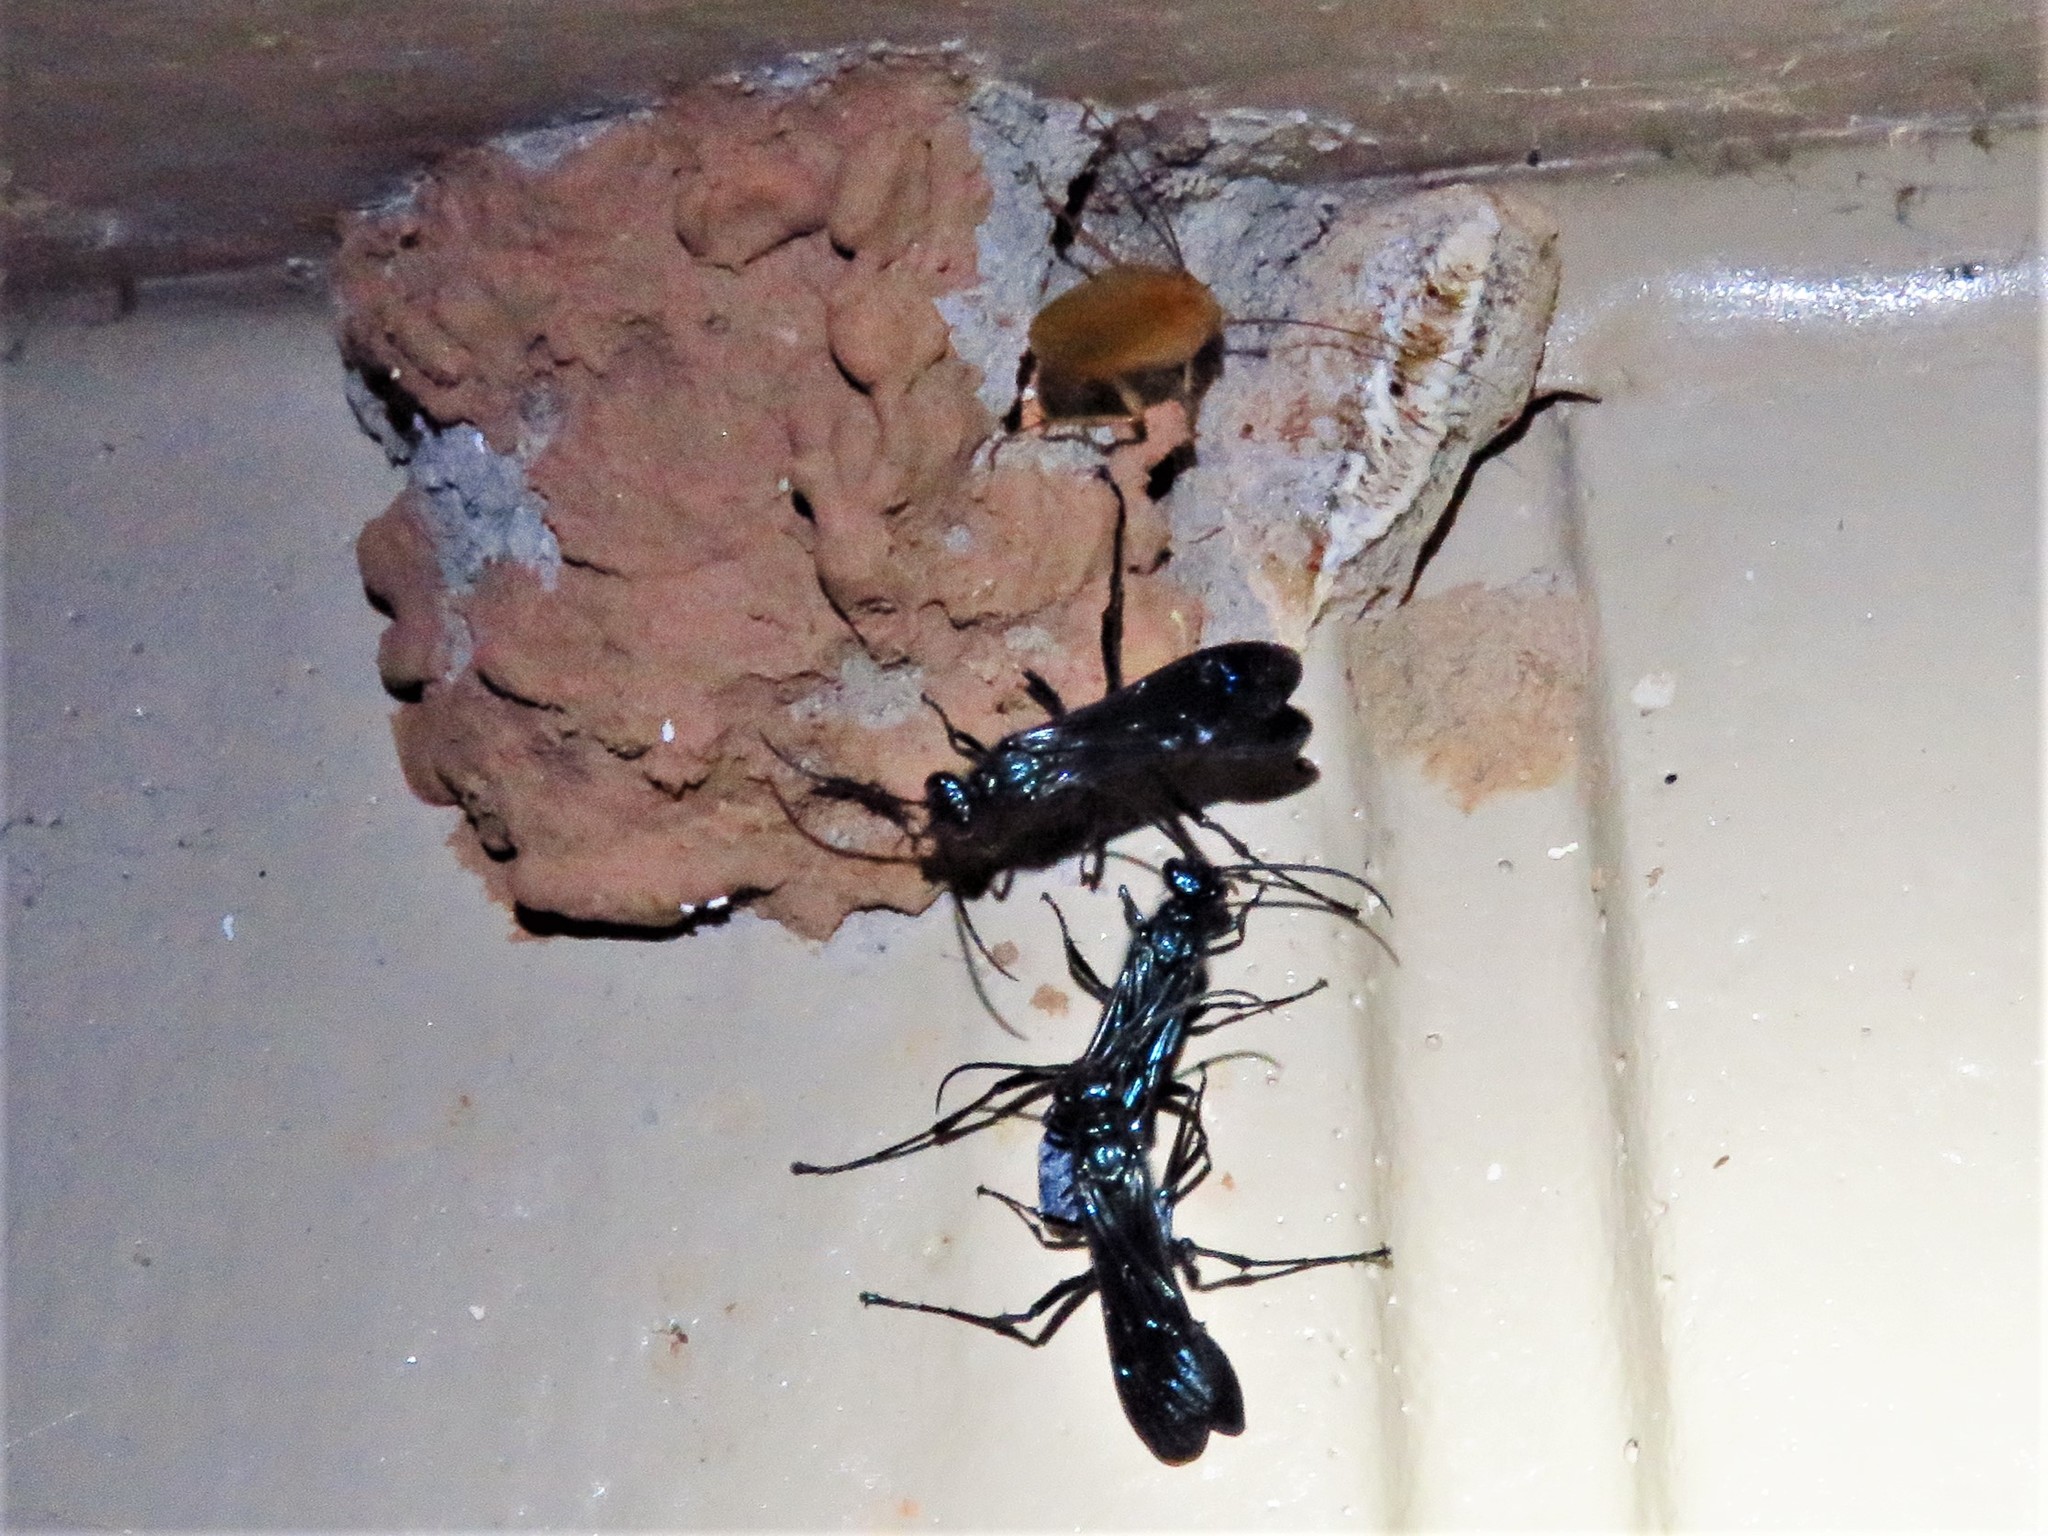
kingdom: Animalia
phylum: Arthropoda
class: Insecta
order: Hymenoptera
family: Sphecidae
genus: Chalybion
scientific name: Chalybion californicum
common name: Mud dauber
